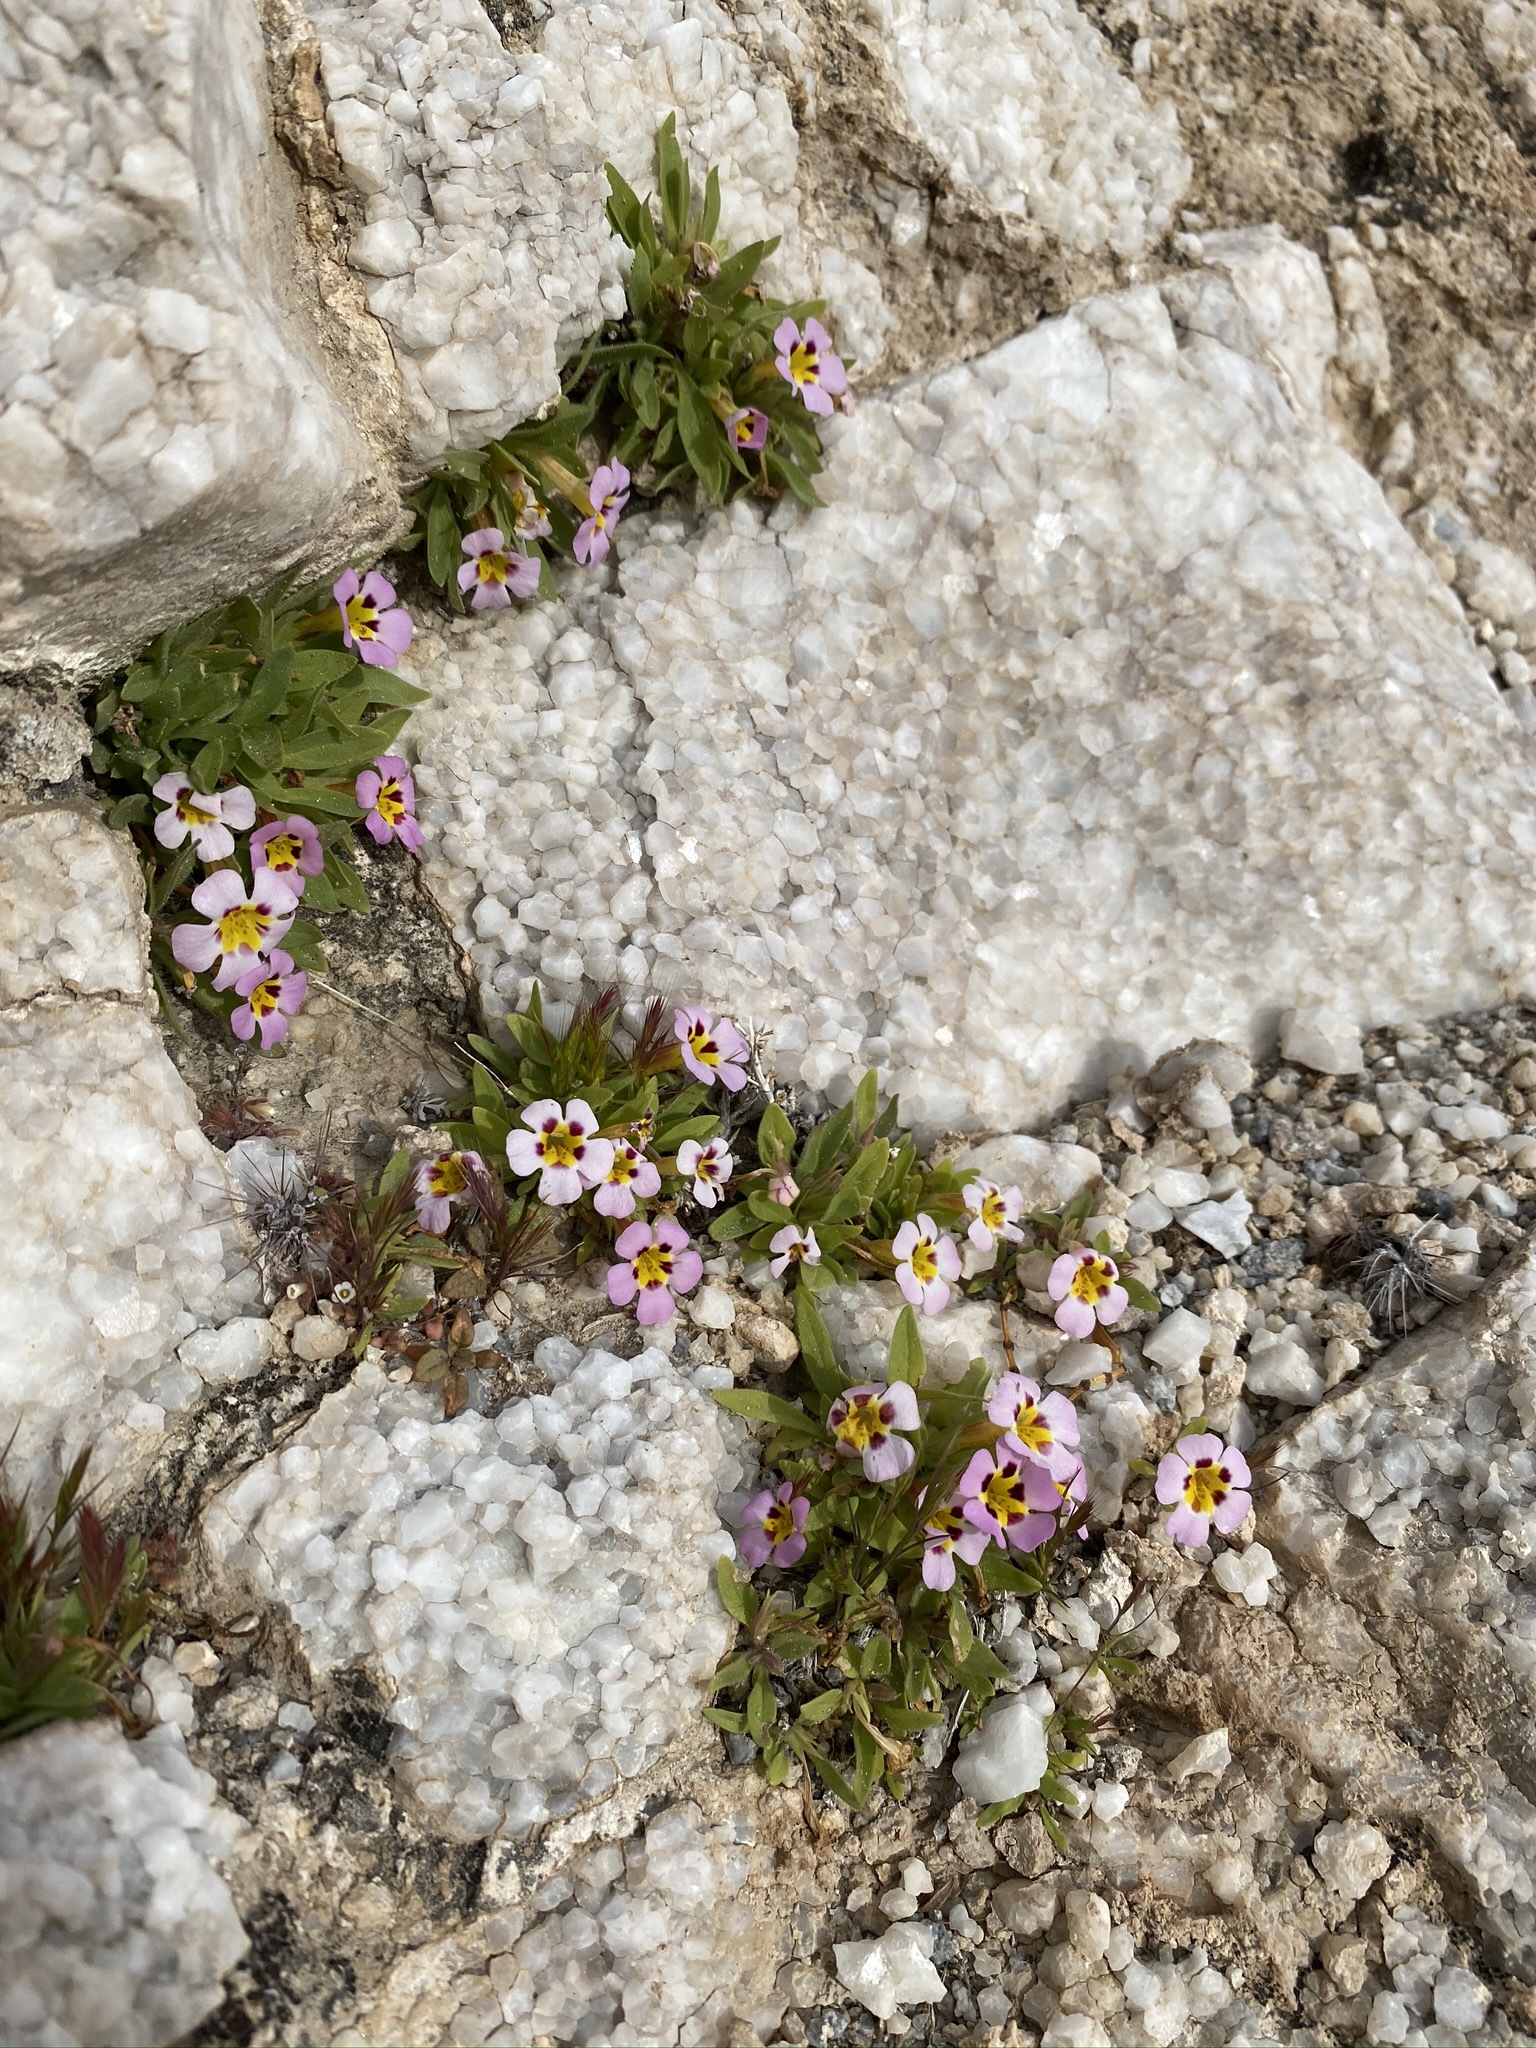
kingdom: Plantae
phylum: Tracheophyta
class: Magnoliopsida
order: Lamiales
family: Phrymaceae
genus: Diplacus
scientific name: Diplacus rupicola
